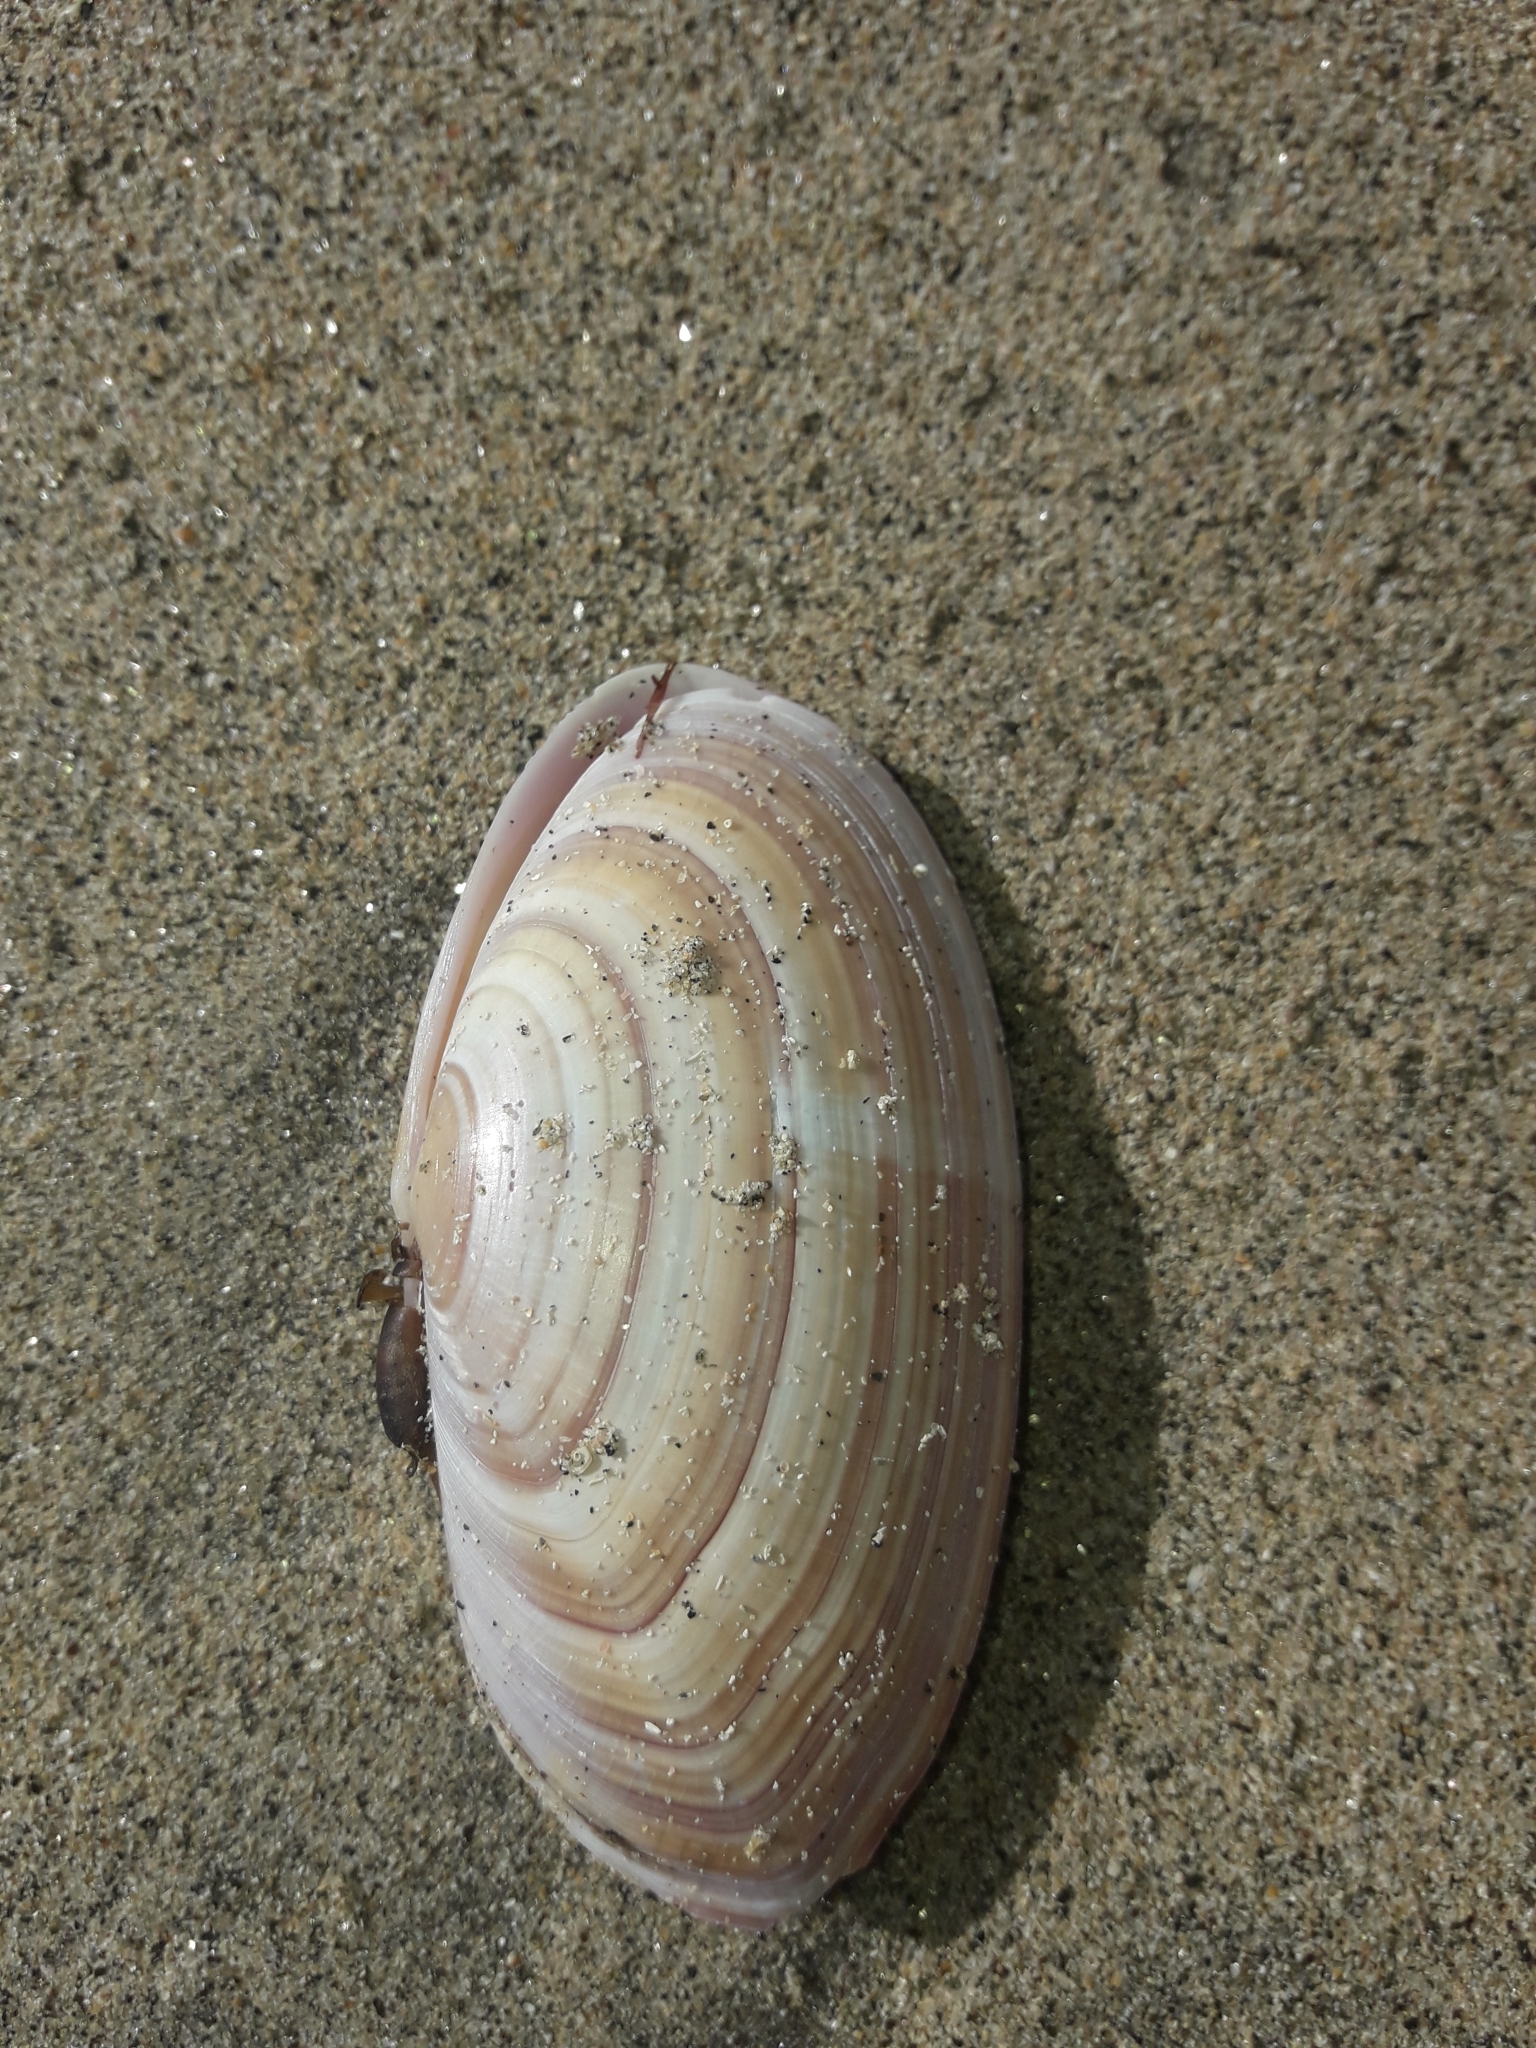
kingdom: Animalia
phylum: Mollusca
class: Bivalvia
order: Cardiida
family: Psammobiidae
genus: Gari
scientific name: Gari lineolata
